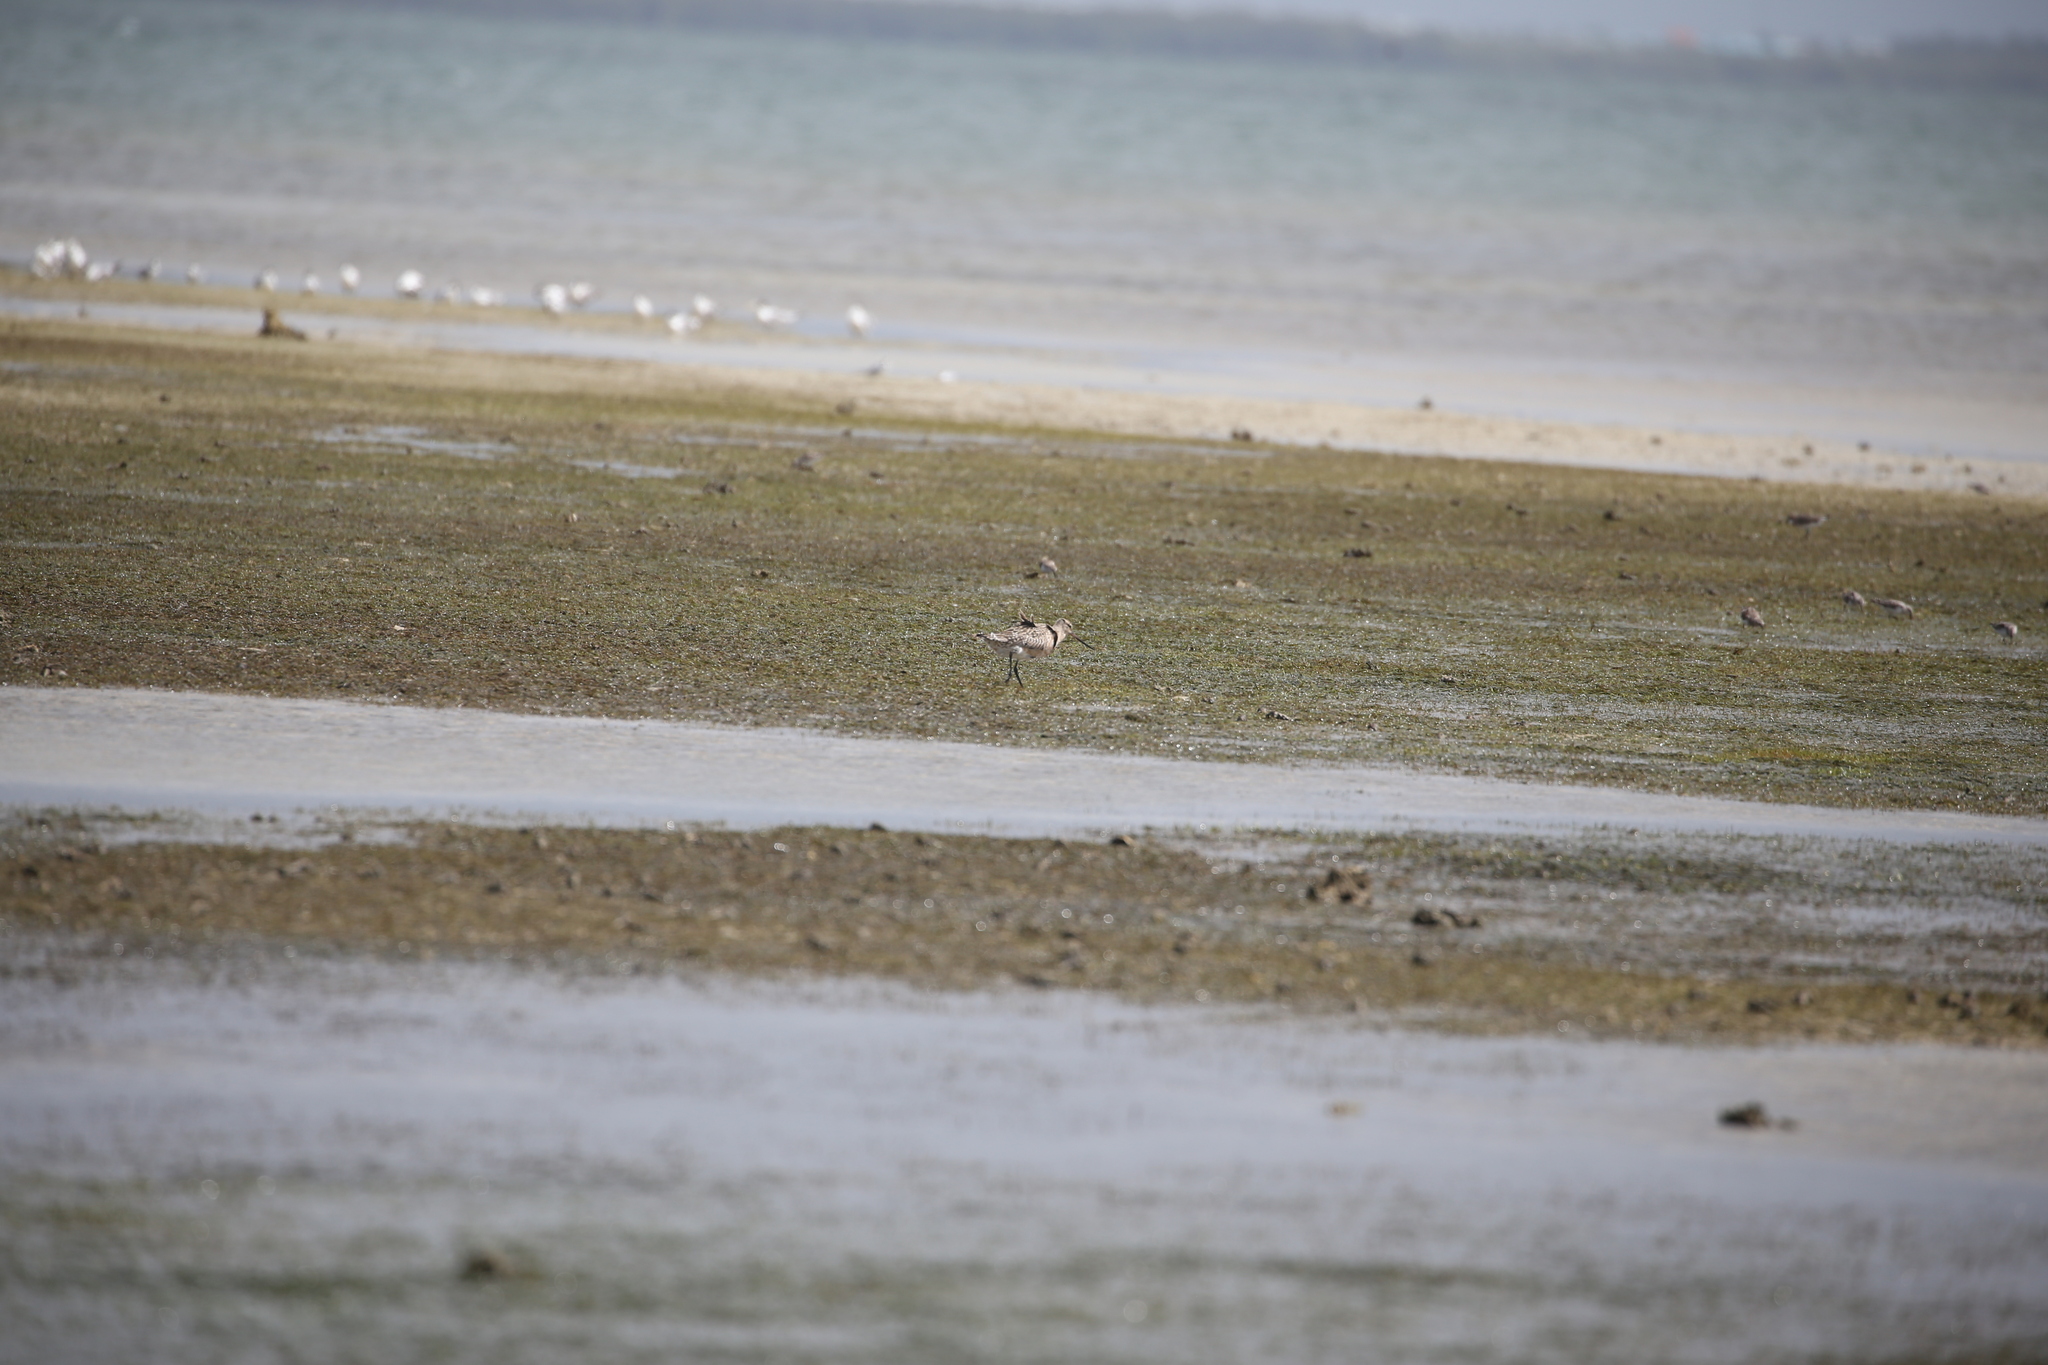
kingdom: Animalia
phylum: Chordata
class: Aves
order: Charadriiformes
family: Scolopacidae
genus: Limosa
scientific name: Limosa lapponica
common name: Bar-tailed godwit
